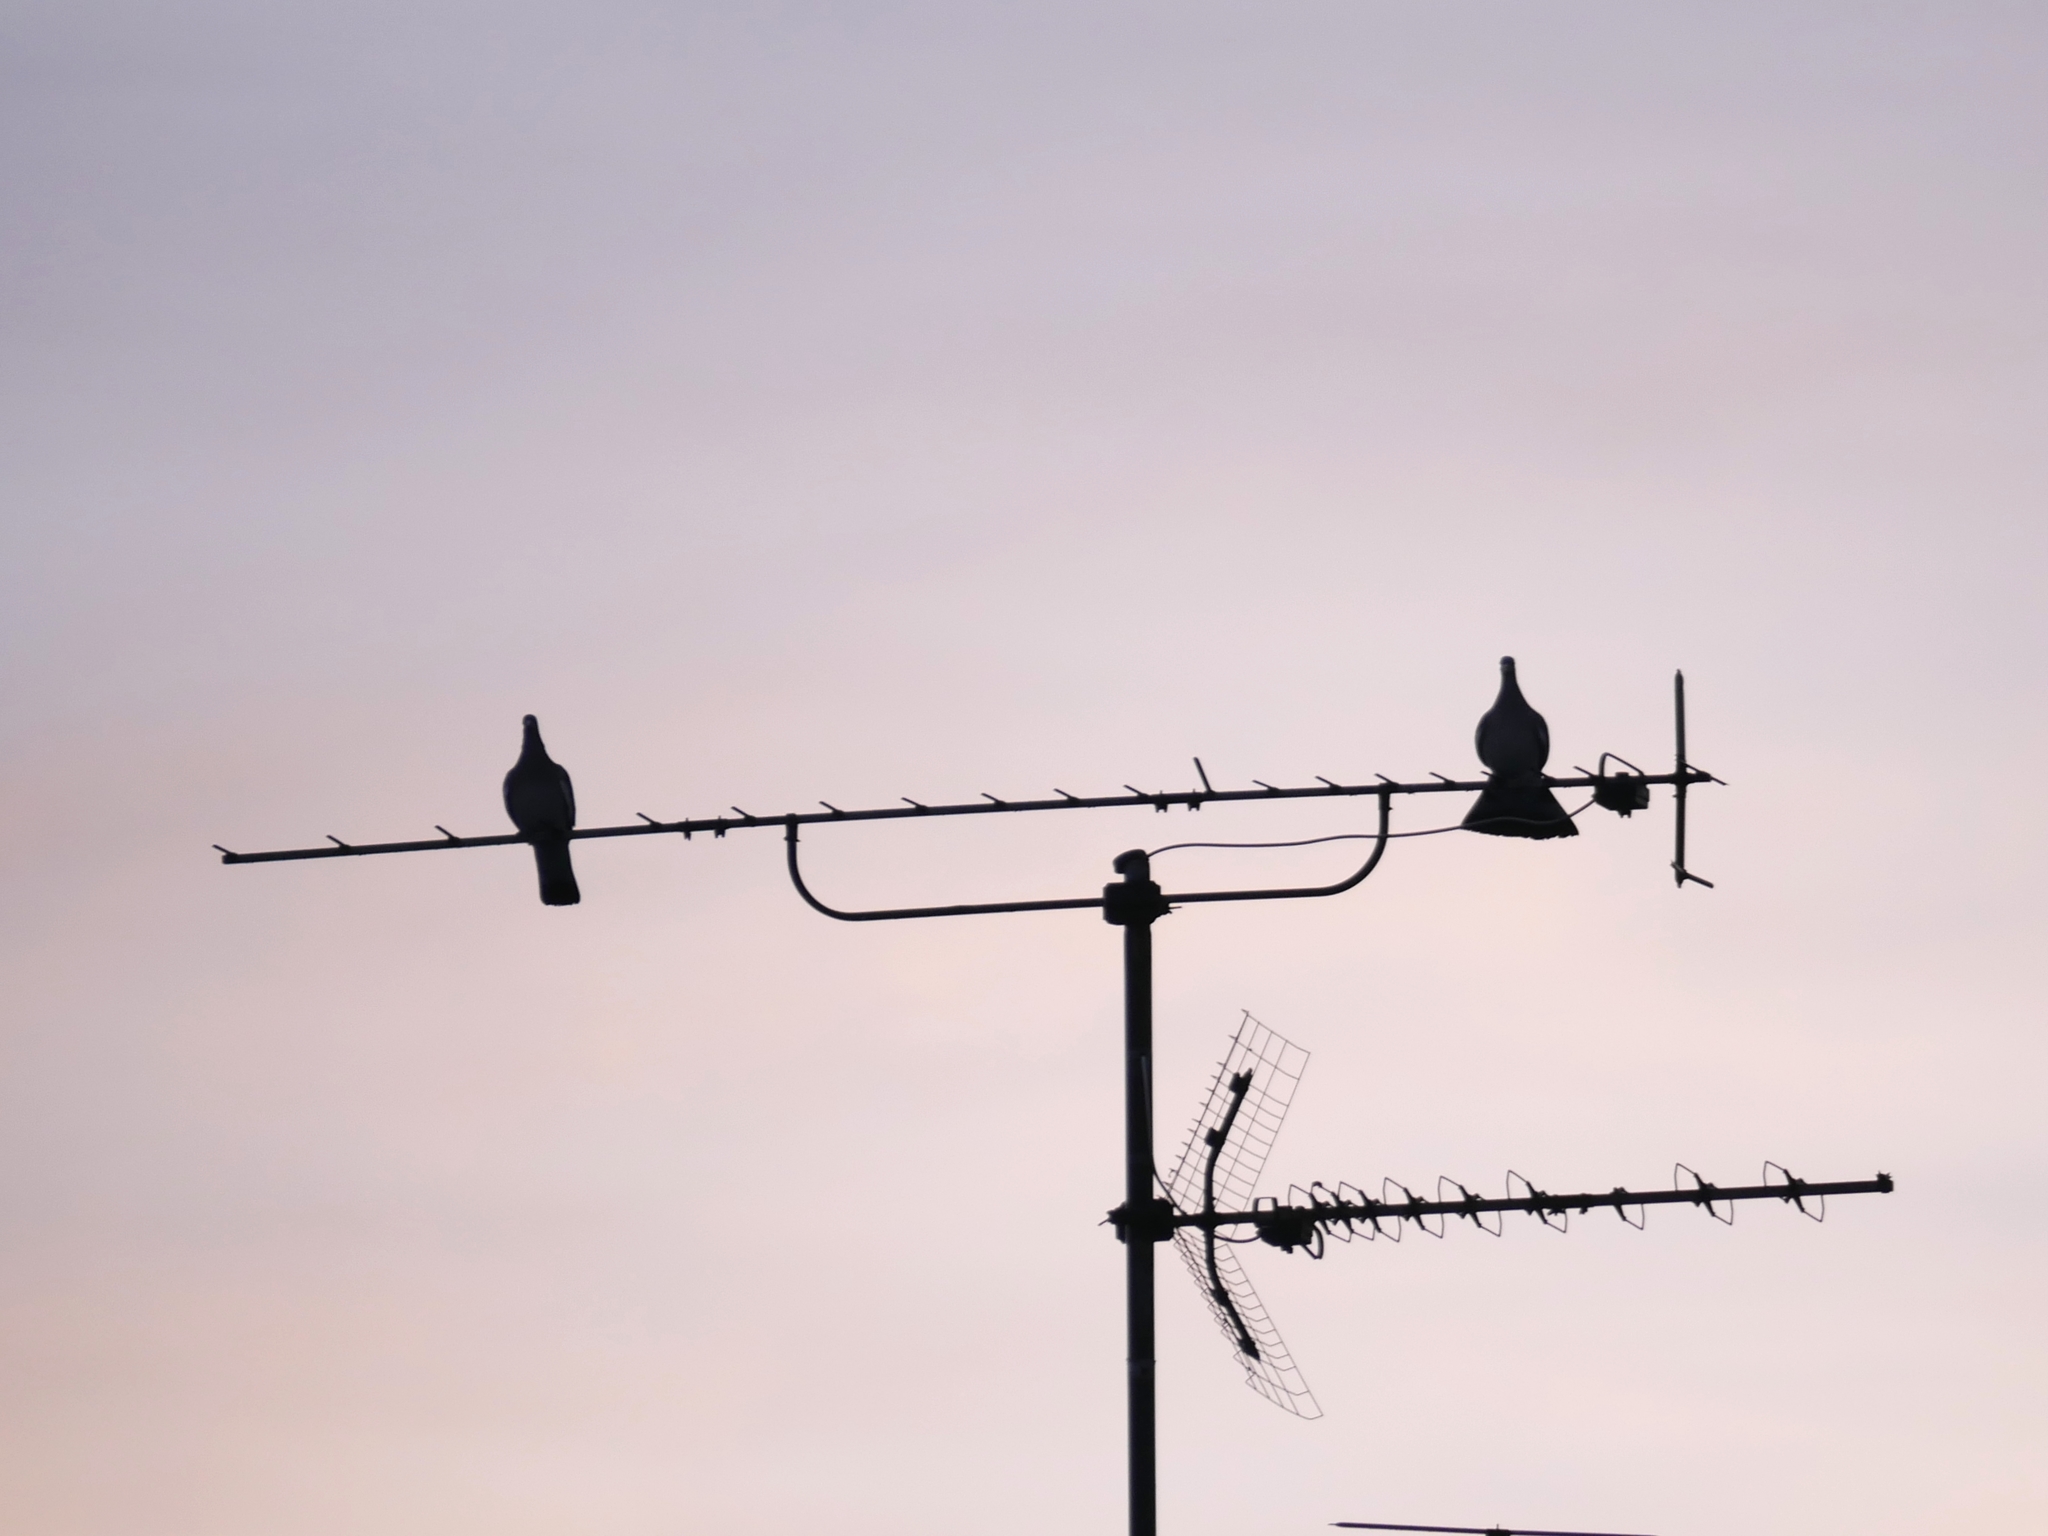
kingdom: Animalia
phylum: Chordata
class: Aves
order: Columbiformes
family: Columbidae
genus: Columba
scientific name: Columba palumbus
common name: Common wood pigeon
